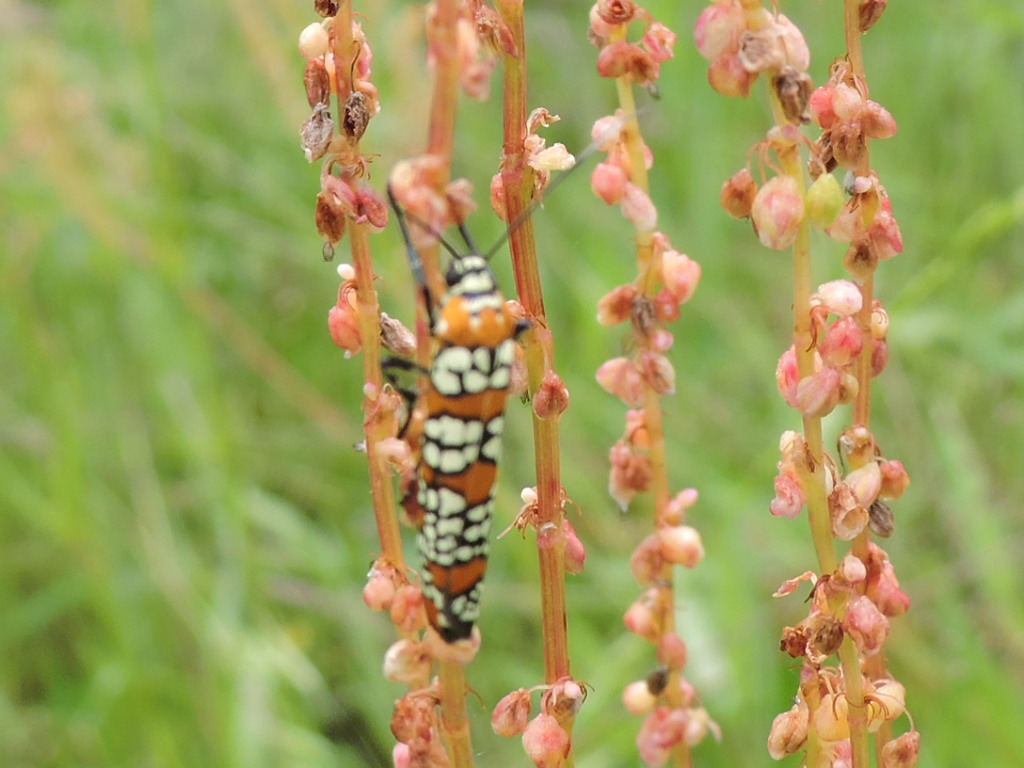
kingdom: Animalia
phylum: Arthropoda
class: Insecta
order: Lepidoptera
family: Attevidae
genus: Atteva
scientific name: Atteva punctella
